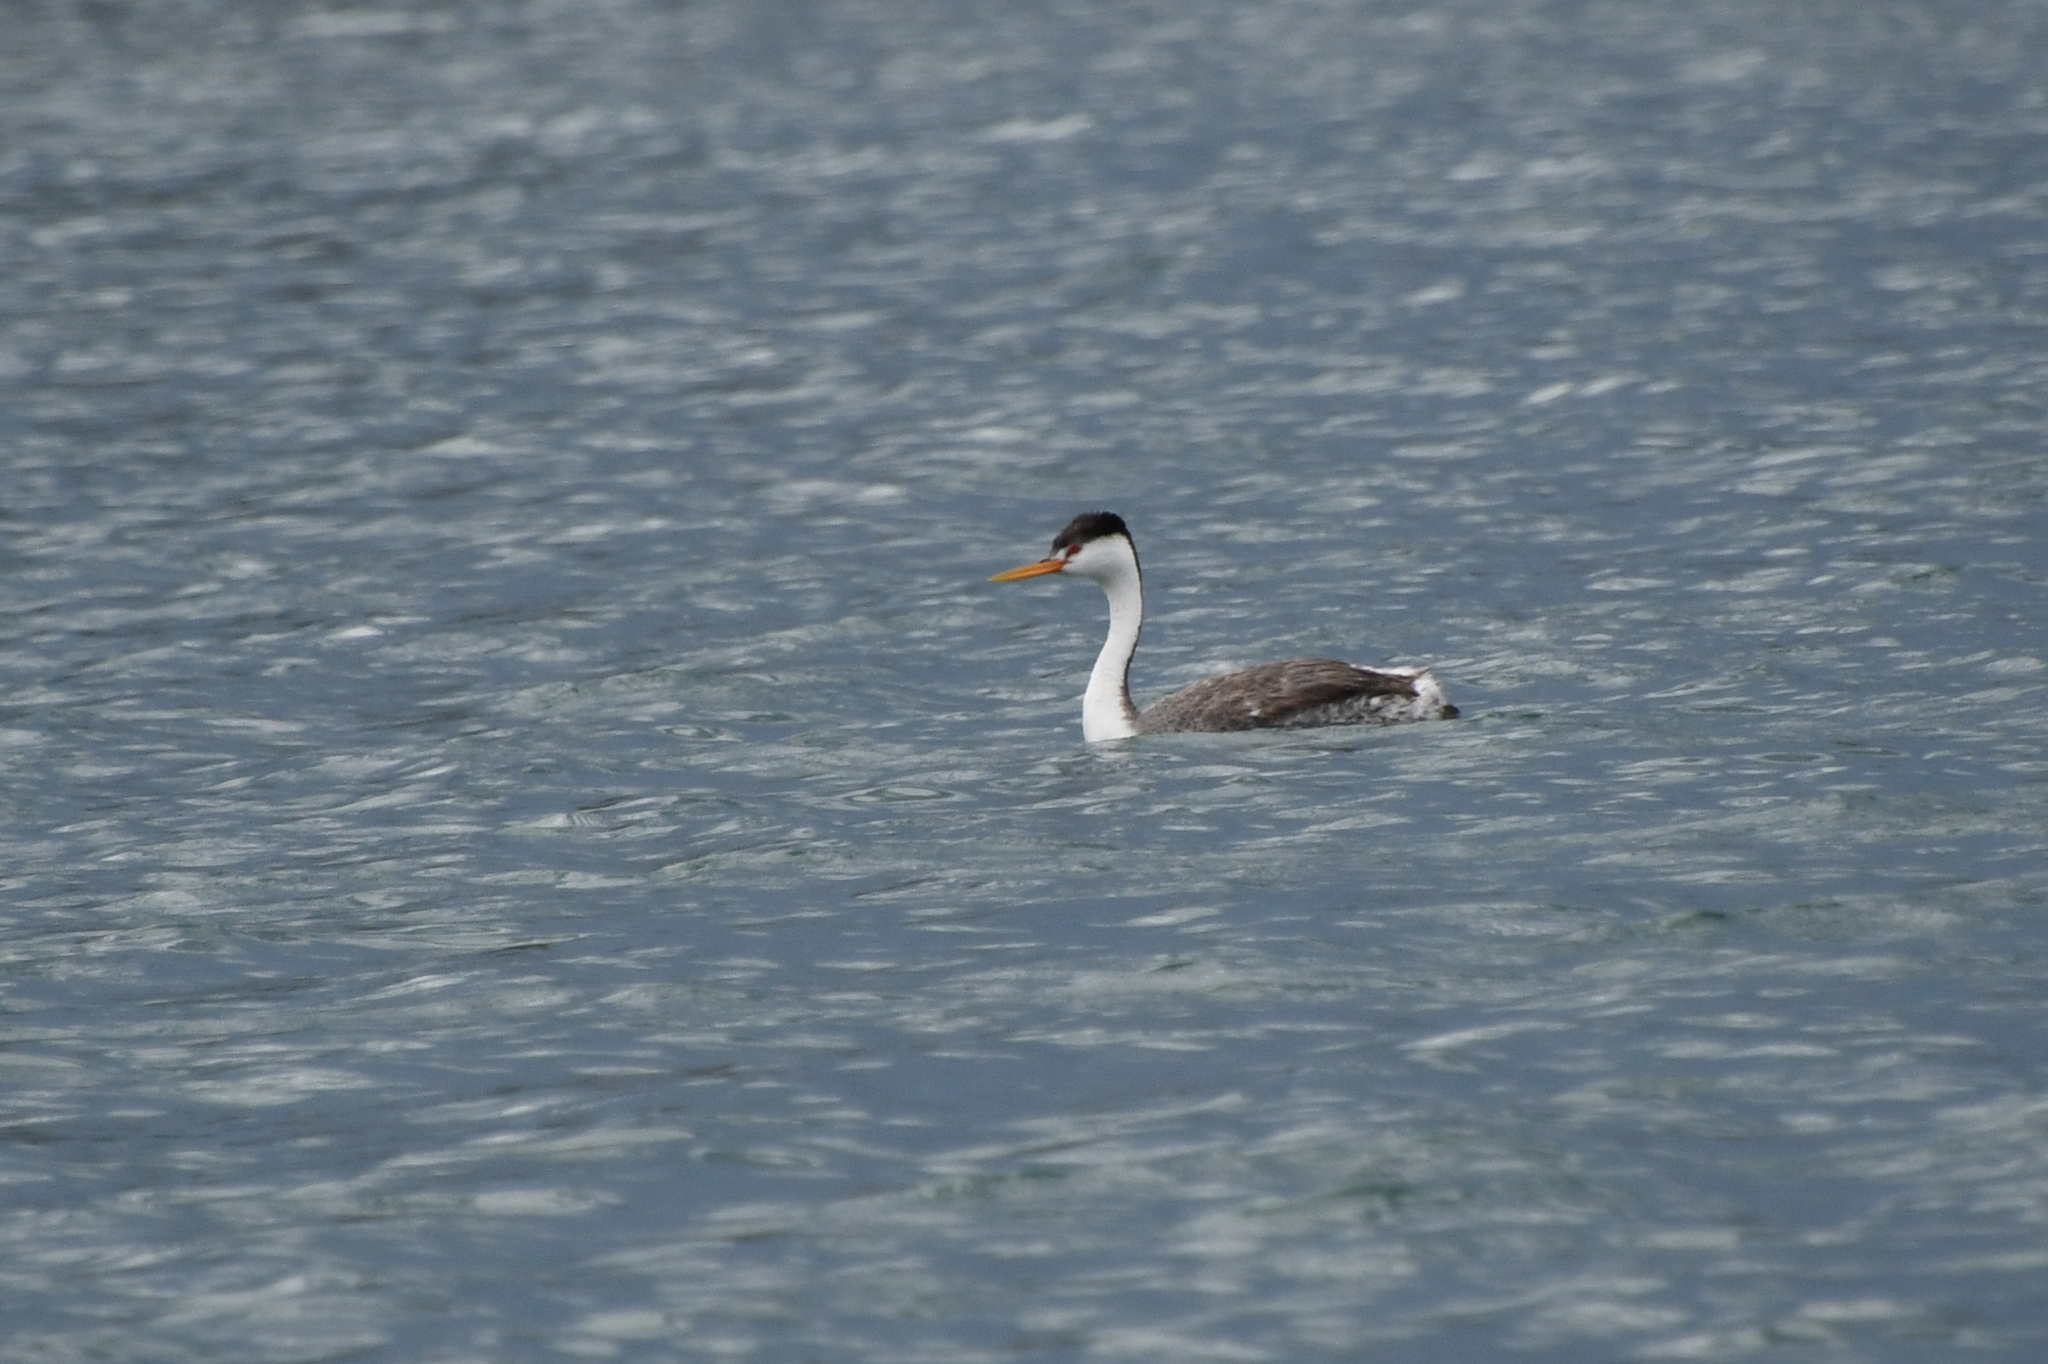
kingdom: Animalia
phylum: Chordata
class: Aves
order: Podicipediformes
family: Podicipedidae
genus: Aechmophorus
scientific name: Aechmophorus clarkii
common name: Clark's grebe
